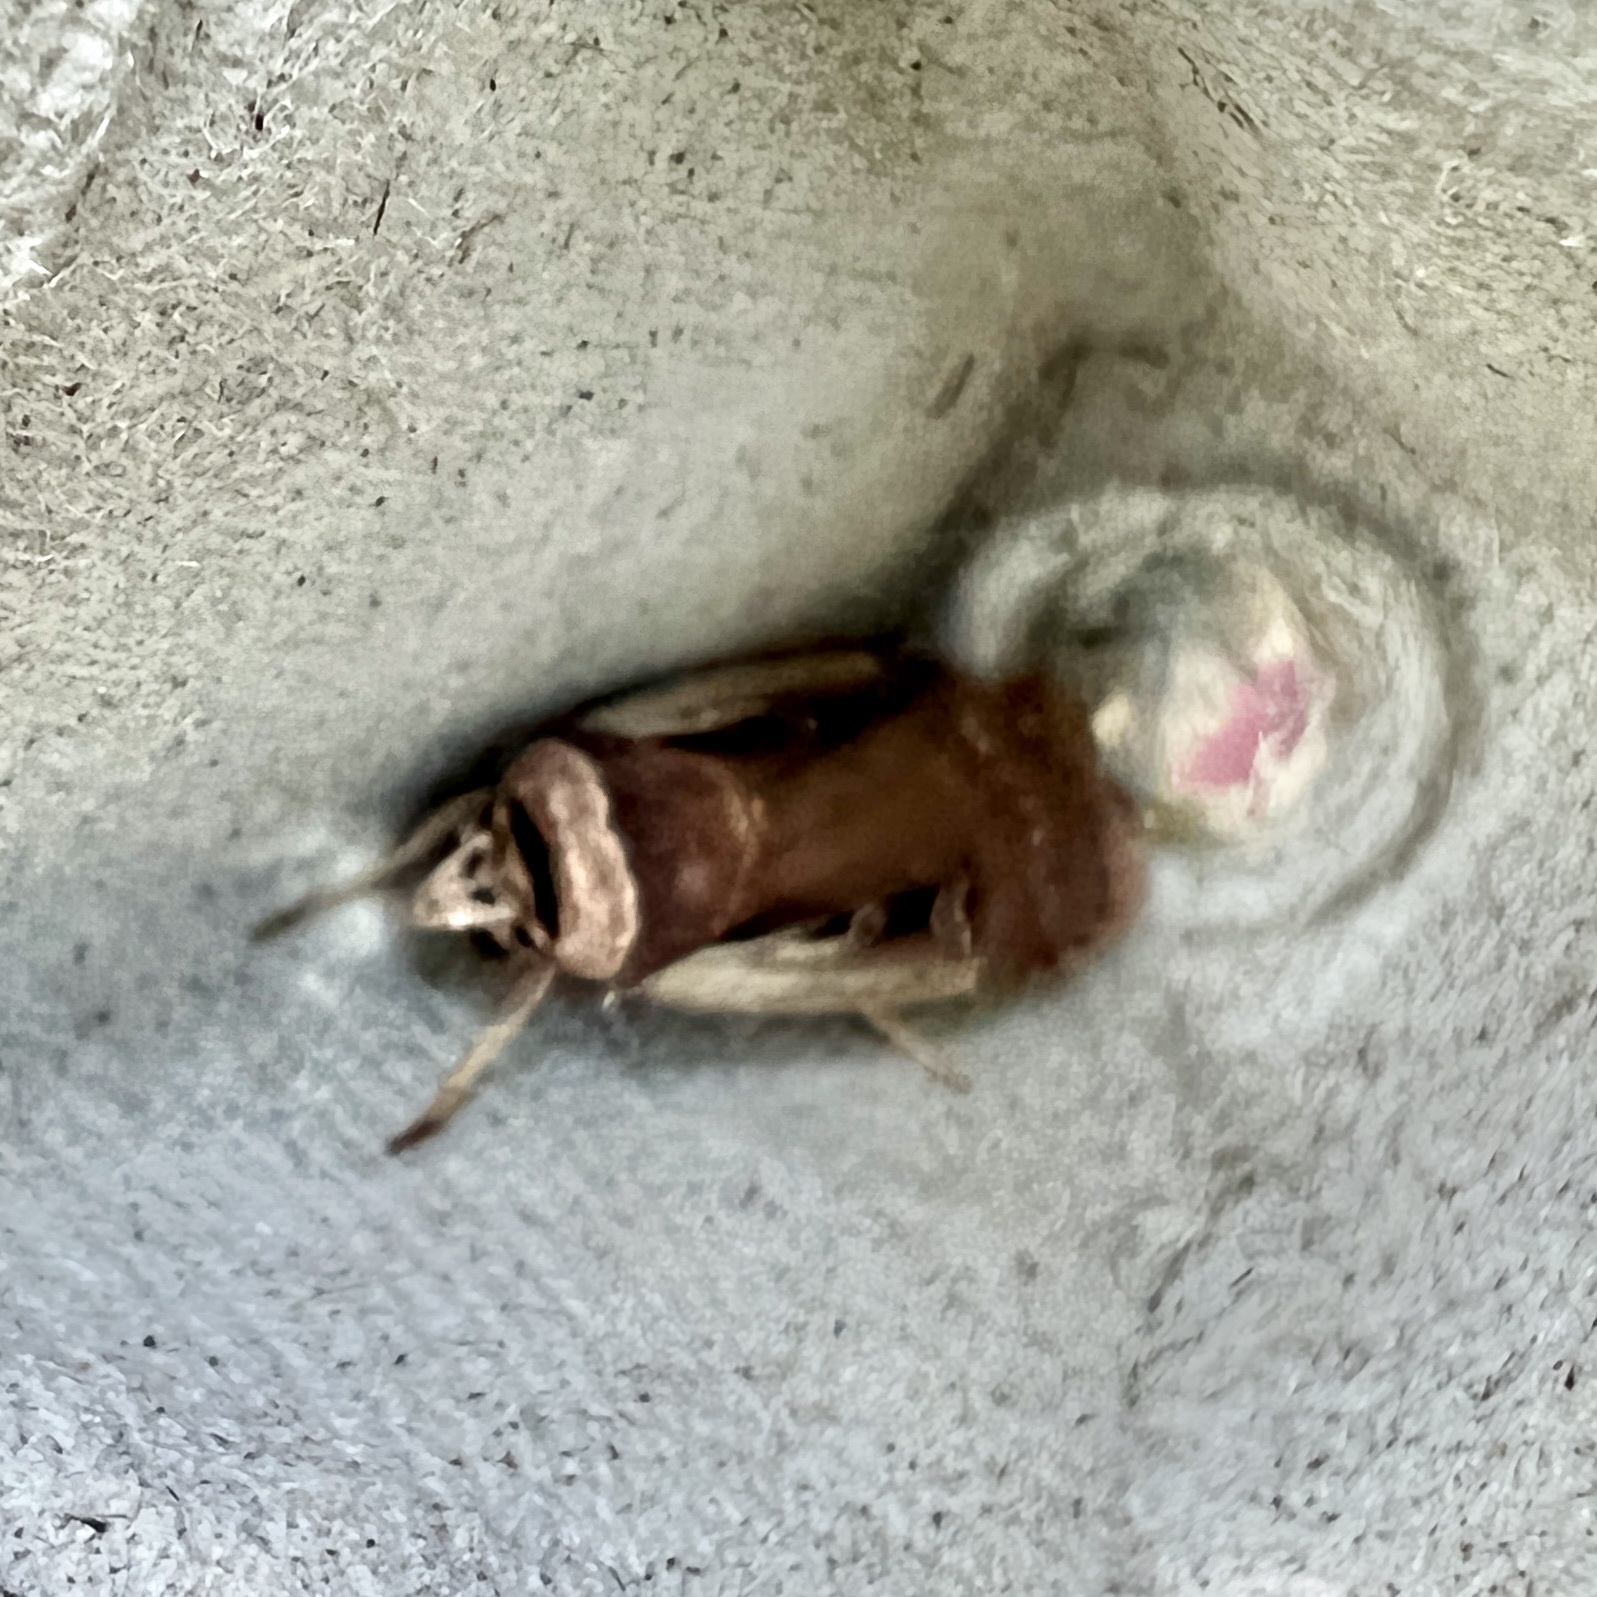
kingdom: Animalia
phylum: Arthropoda
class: Insecta
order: Lepidoptera
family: Noctuidae
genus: Ochropleura
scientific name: Ochropleura implecta
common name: Flame-shouldered dart
